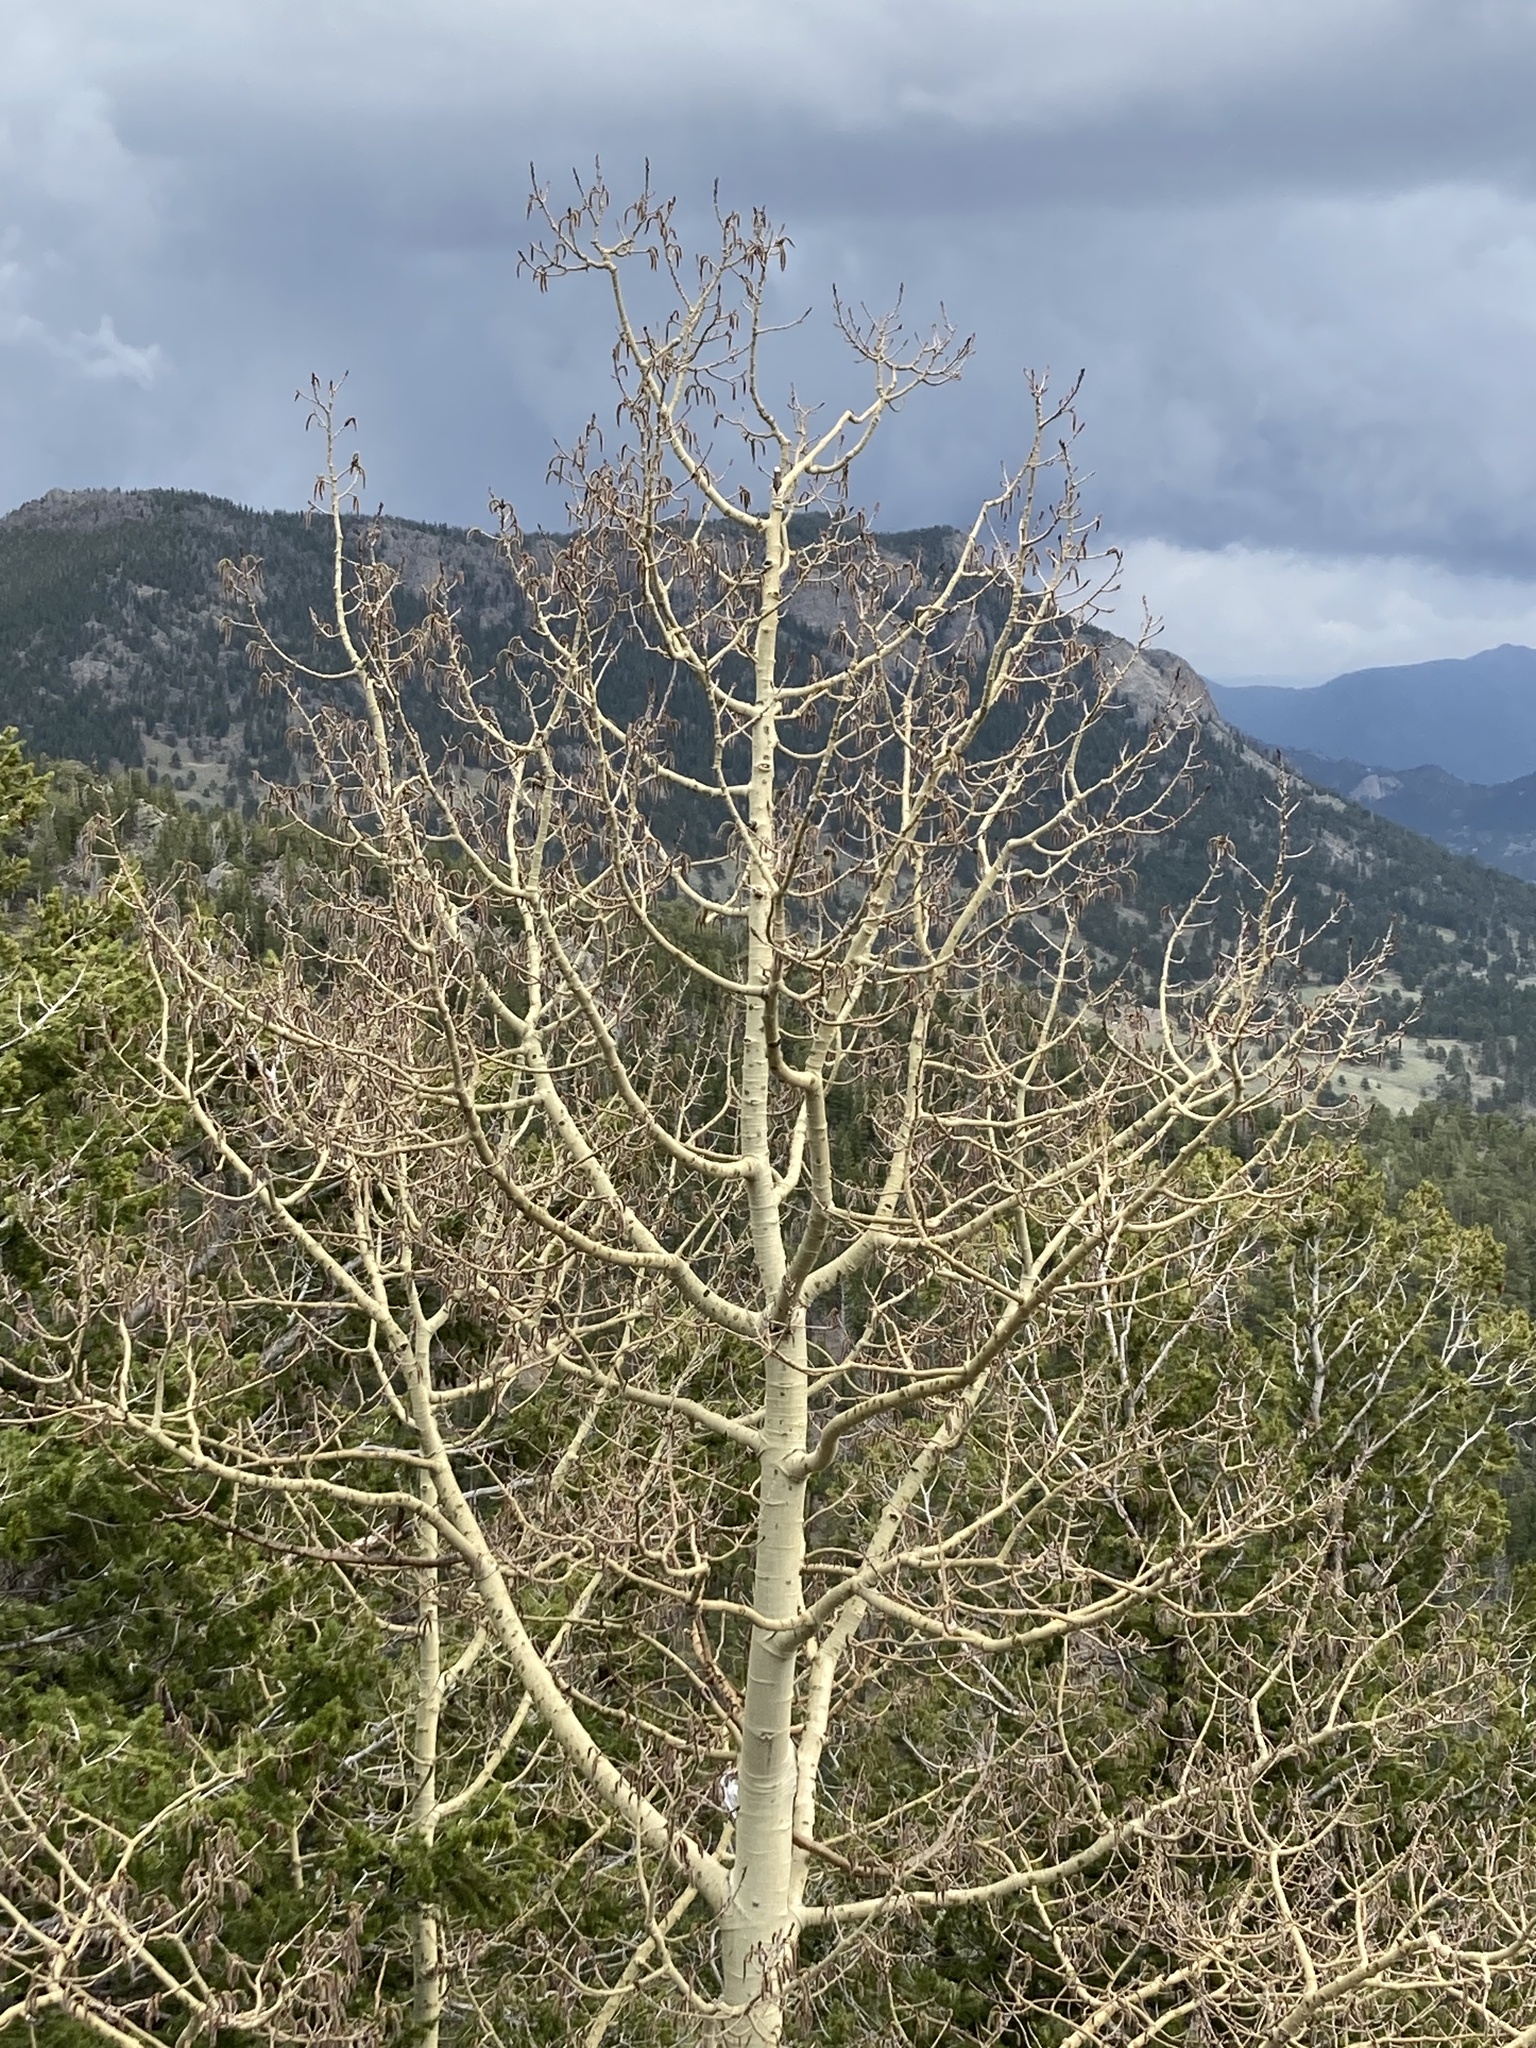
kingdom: Plantae
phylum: Tracheophyta
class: Magnoliopsida
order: Malpighiales
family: Salicaceae
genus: Populus
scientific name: Populus tremuloides
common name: Quaking aspen
